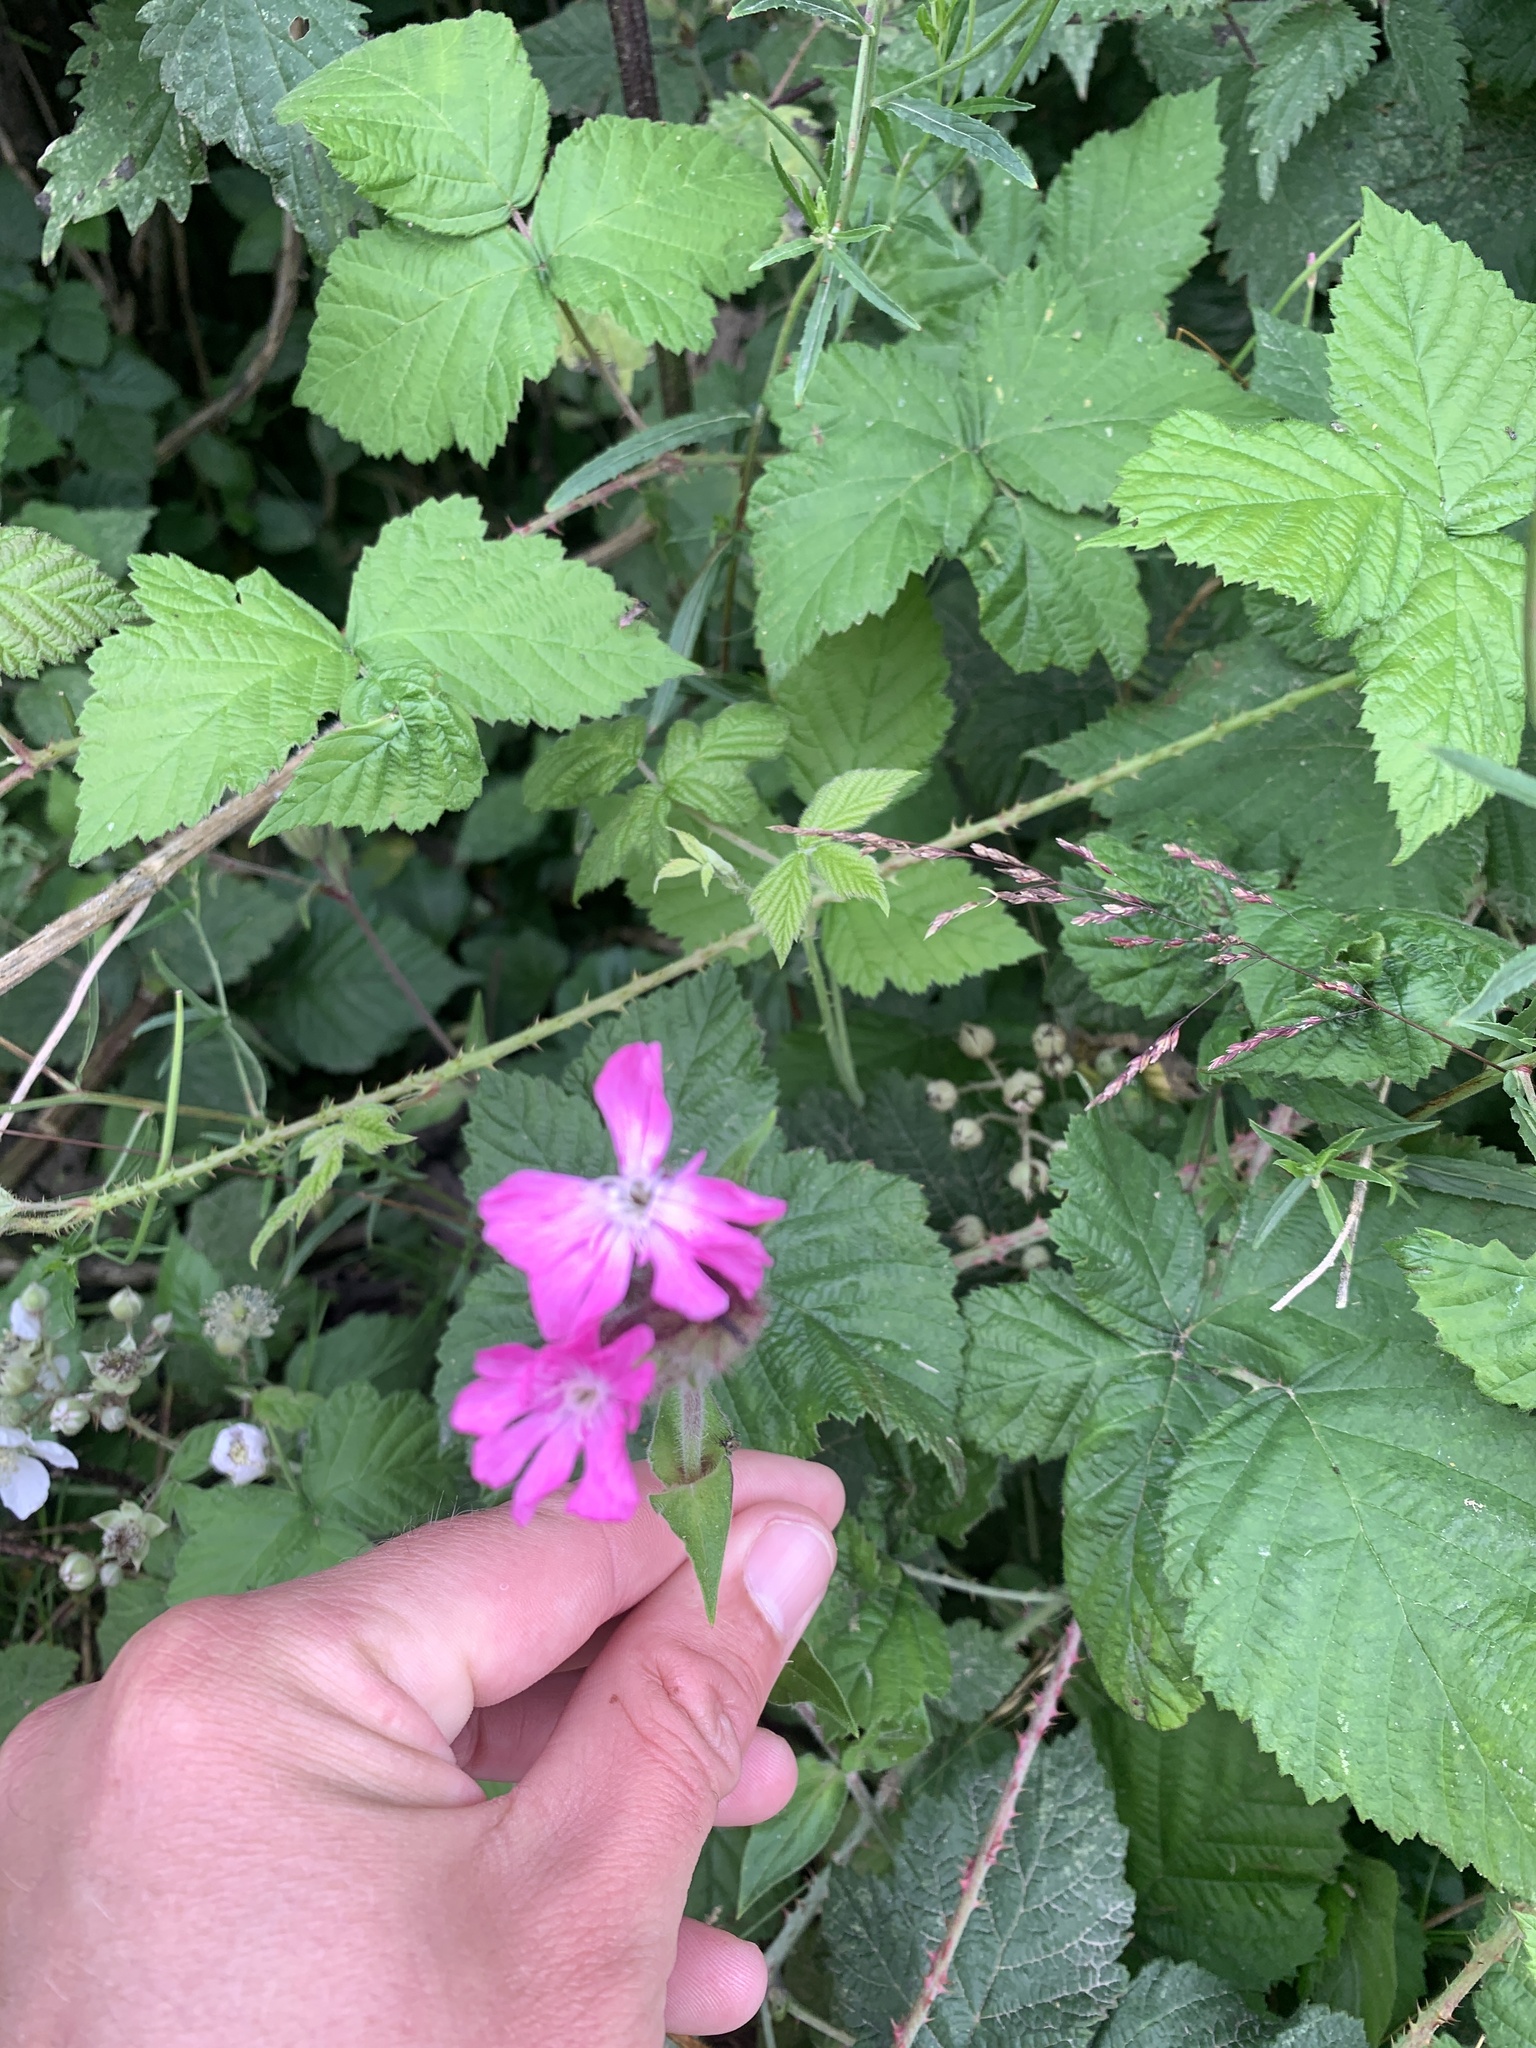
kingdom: Plantae
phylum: Tracheophyta
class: Magnoliopsida
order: Caryophyllales
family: Caryophyllaceae
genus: Silene
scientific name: Silene dioica
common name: Red campion
